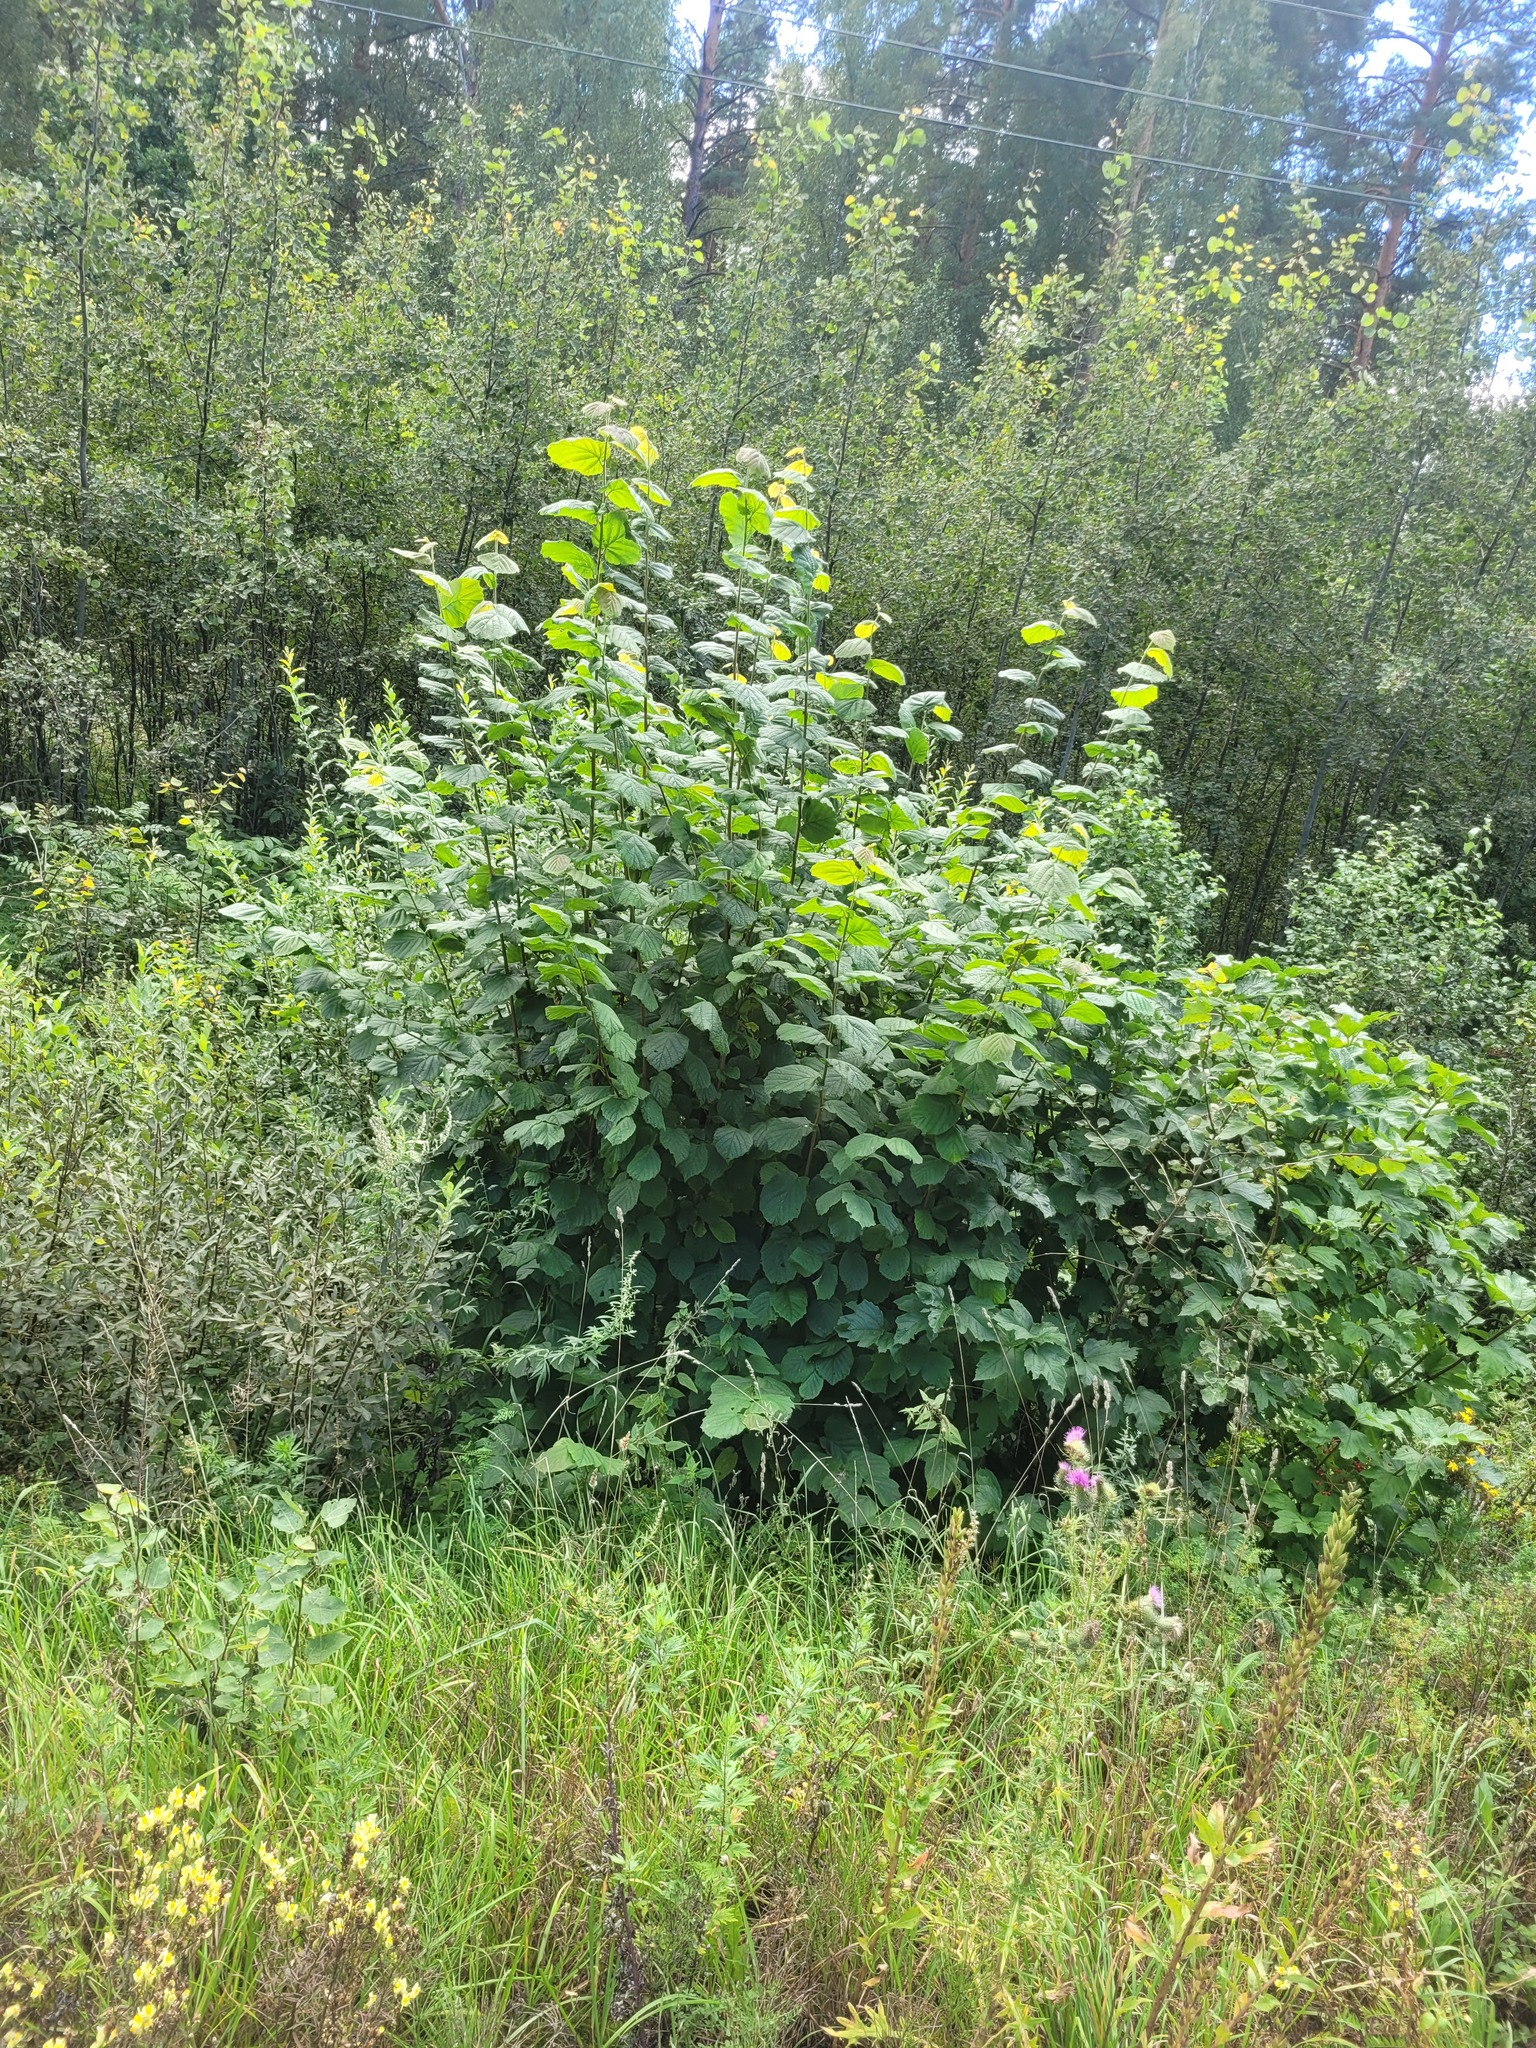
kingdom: Plantae
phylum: Tracheophyta
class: Magnoliopsida
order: Fagales
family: Betulaceae
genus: Corylus
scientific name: Corylus avellana
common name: European hazel
